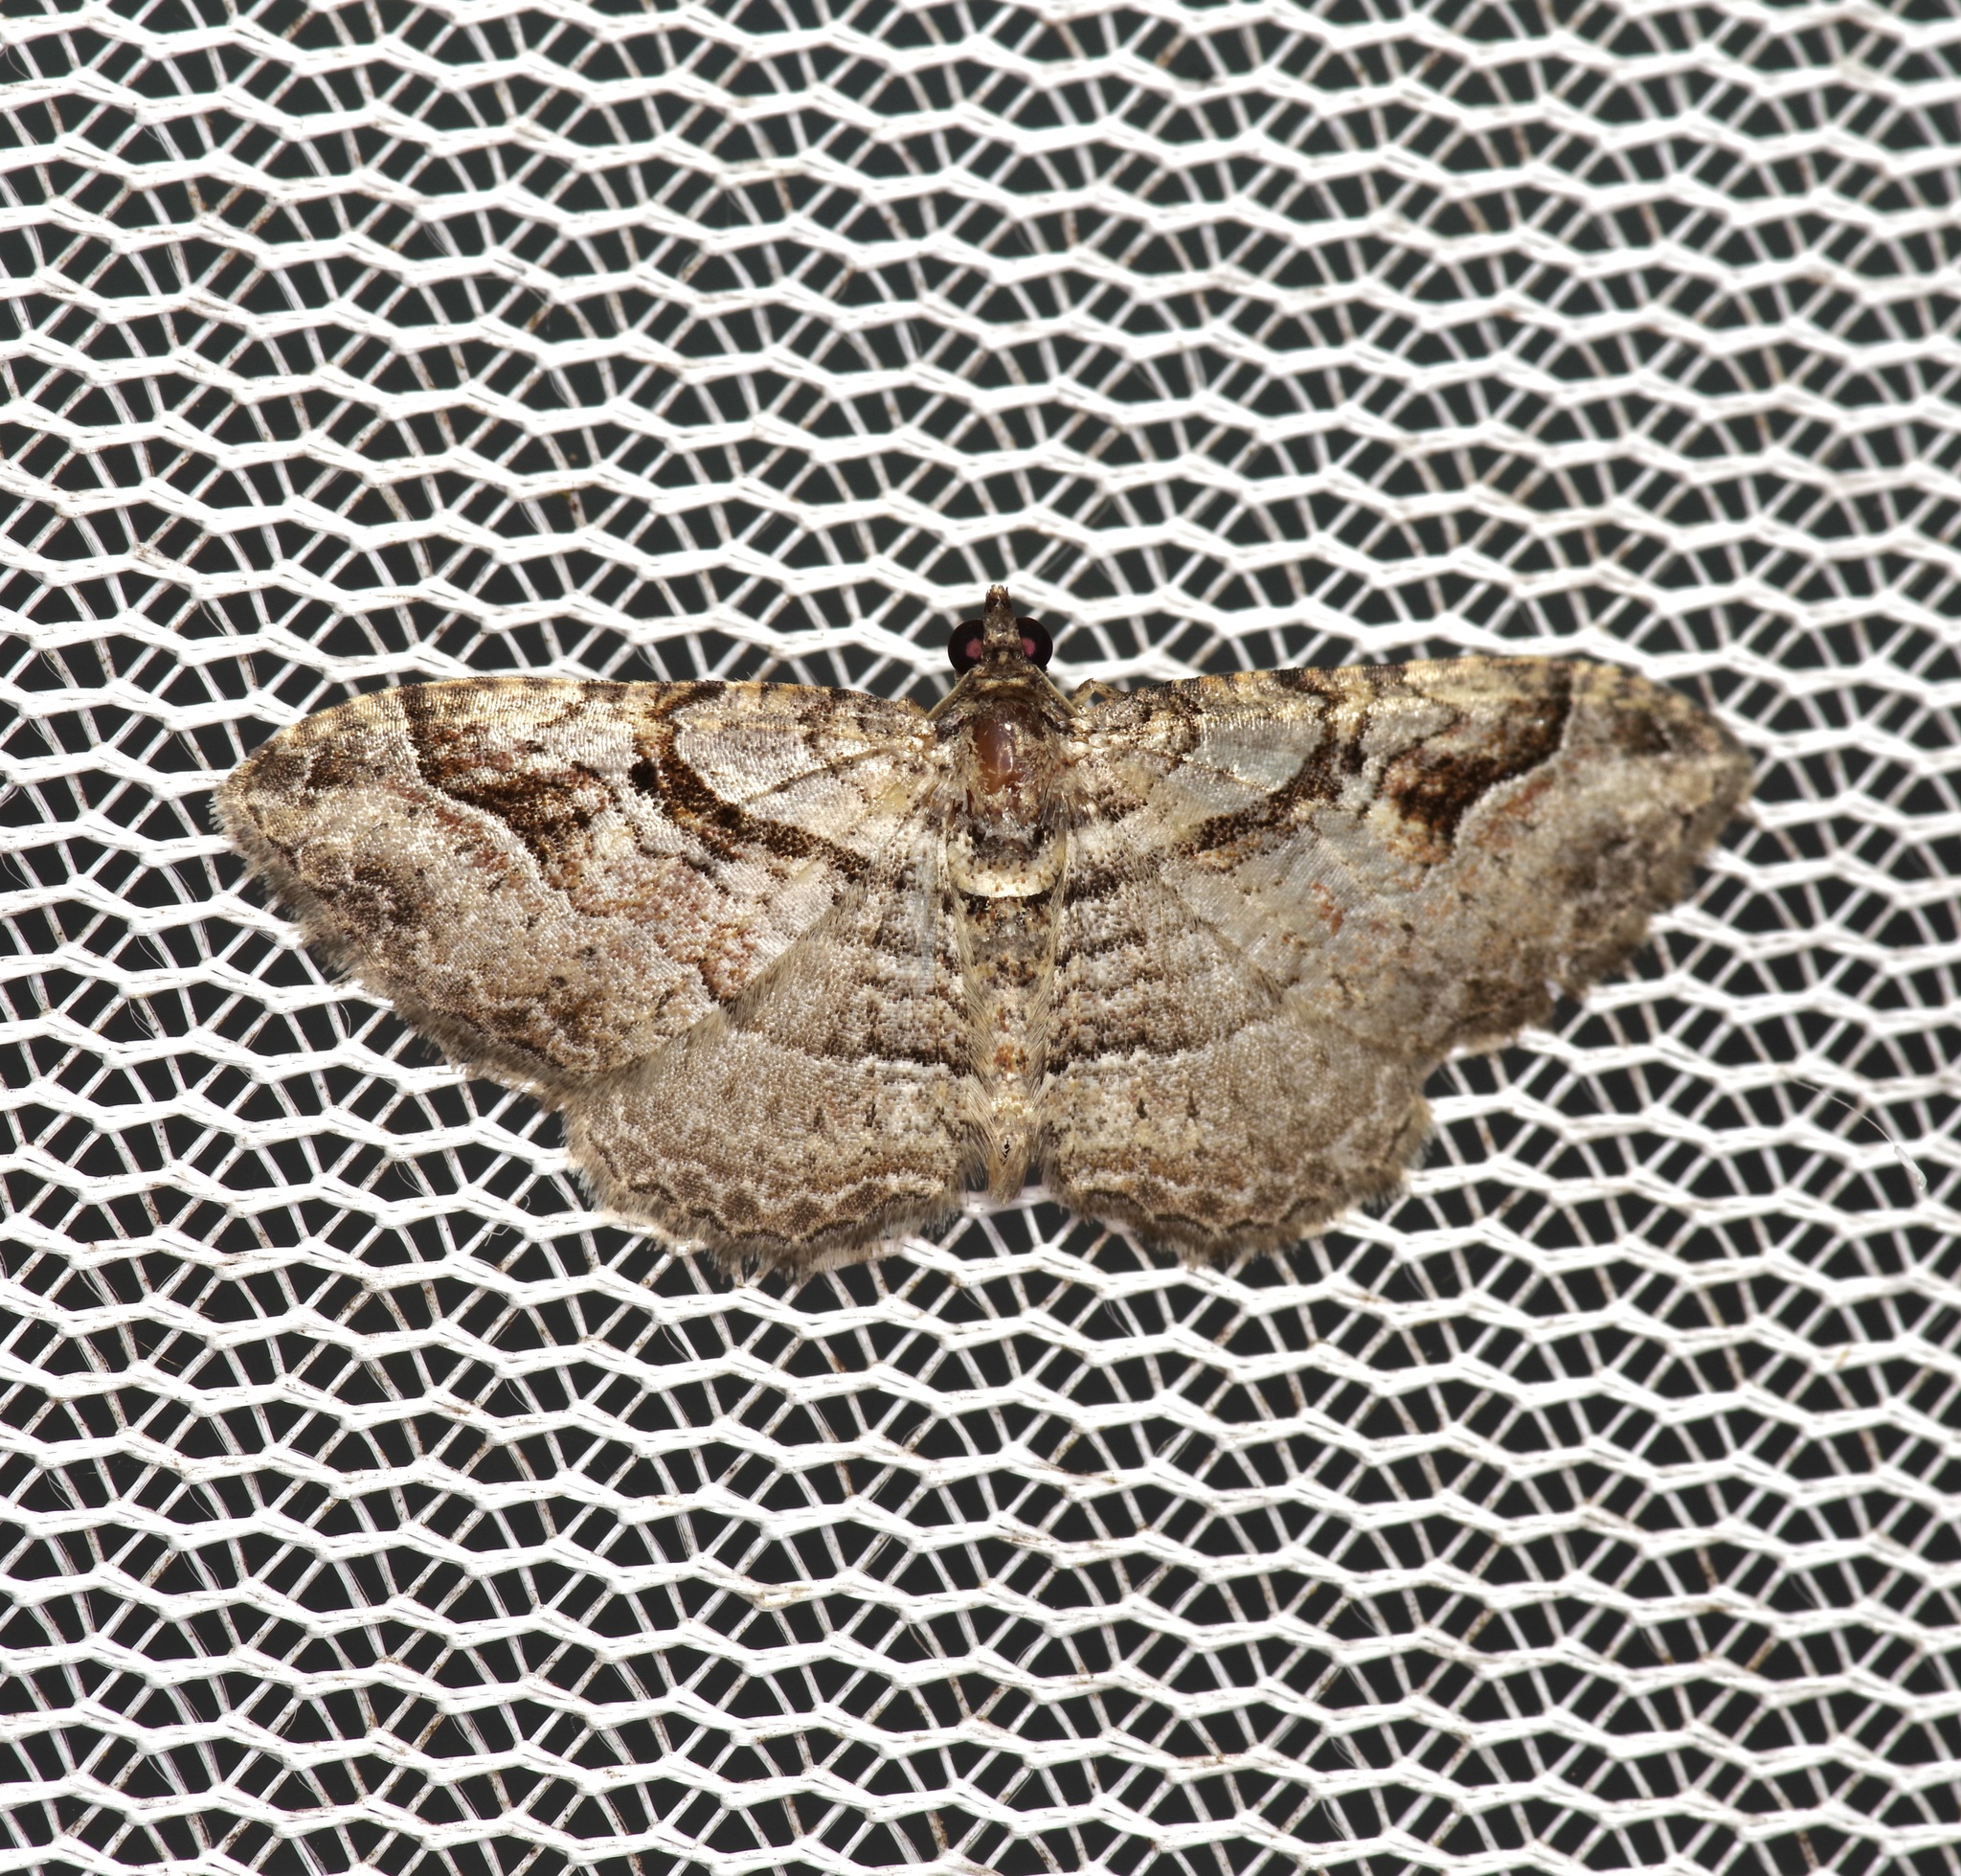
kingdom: Animalia
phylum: Arthropoda
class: Insecta
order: Lepidoptera
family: Geometridae
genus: Costaconvexa
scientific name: Costaconvexa centrostrigaria
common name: Bent-line carpet
